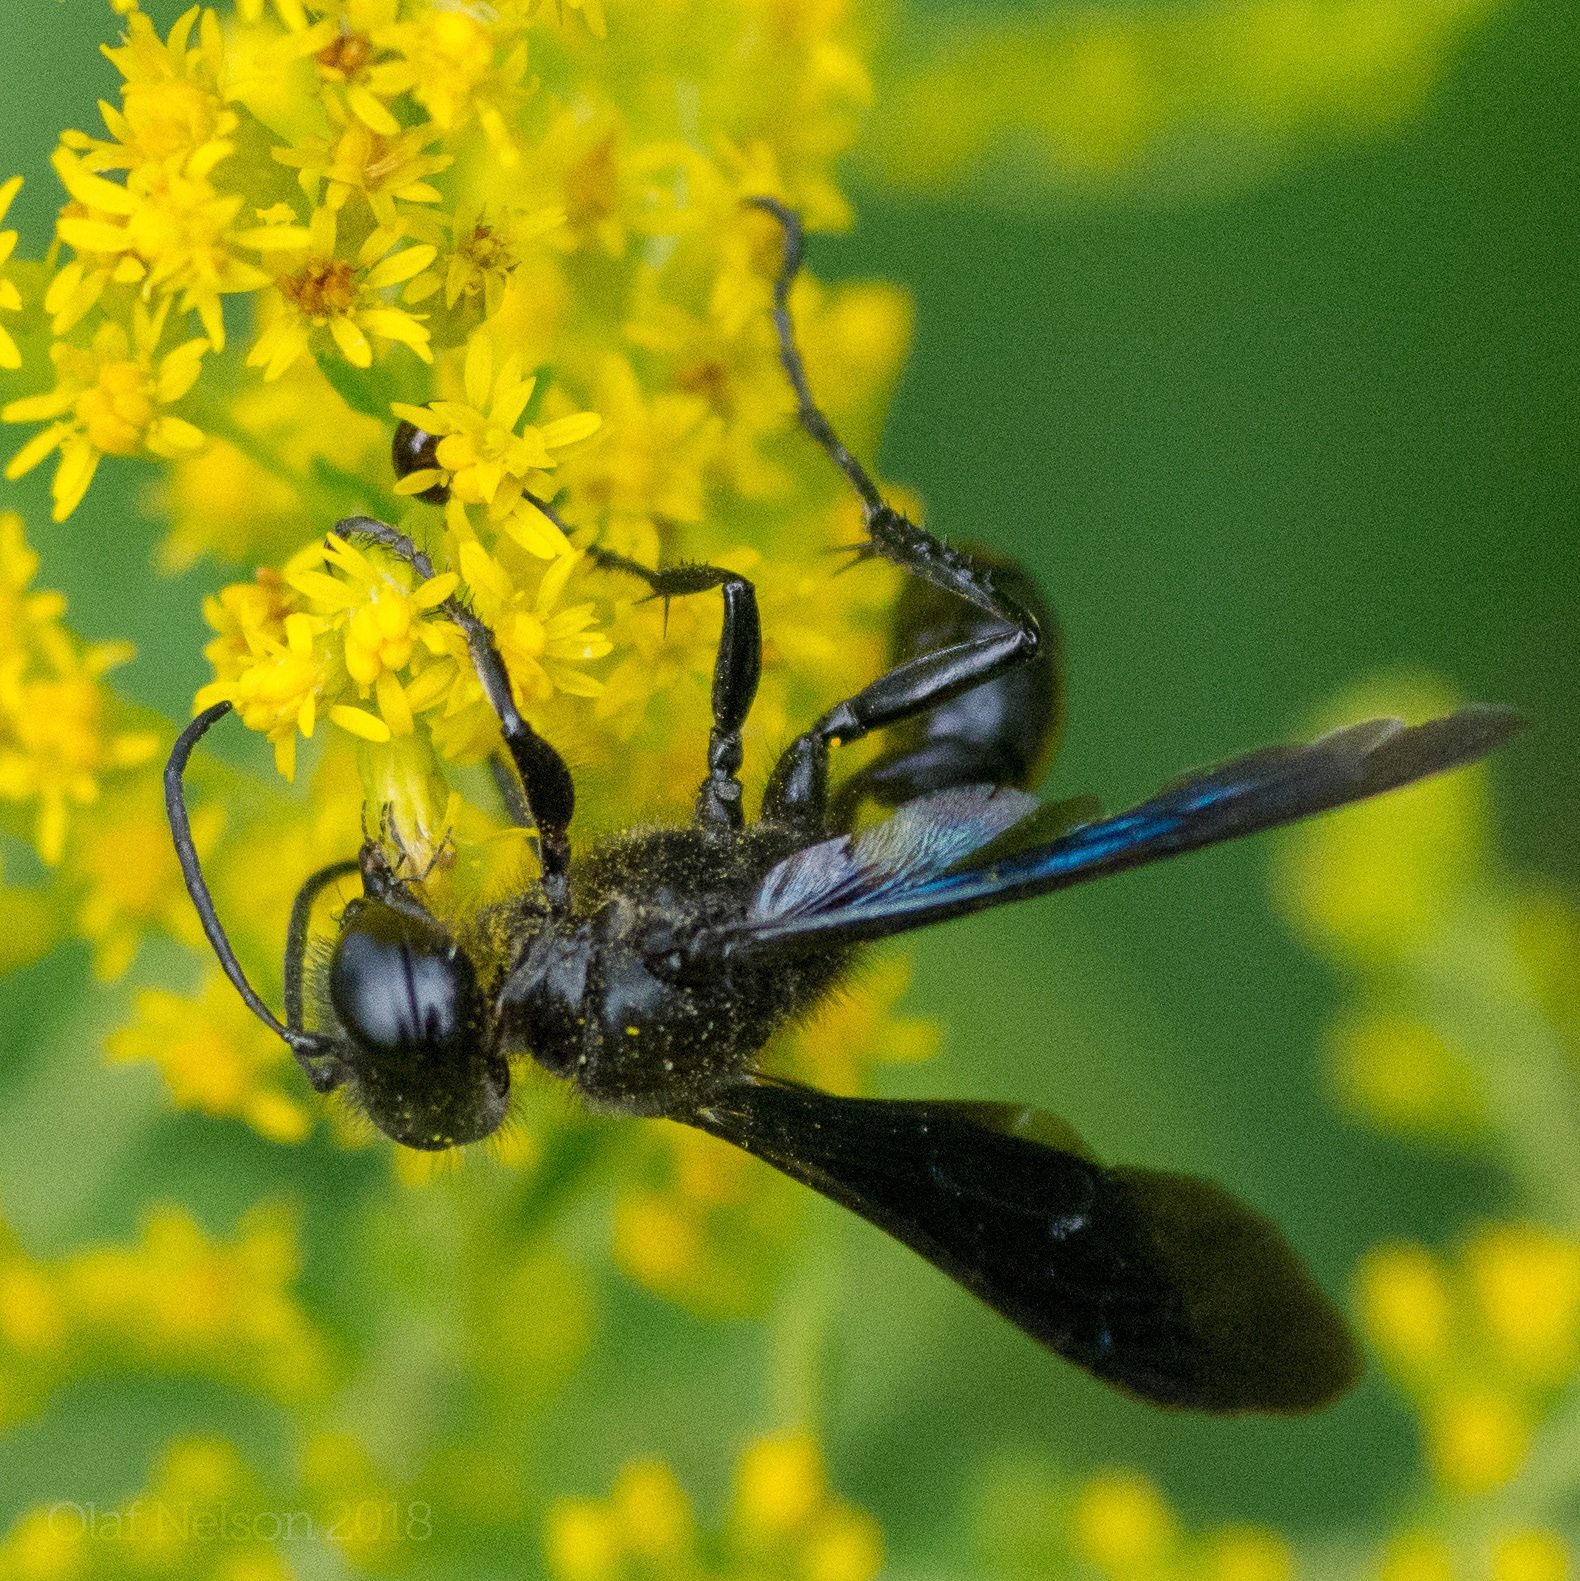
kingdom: Animalia
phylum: Arthropoda
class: Insecta
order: Hymenoptera
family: Sphecidae
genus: Isodontia
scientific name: Isodontia philadelphica
